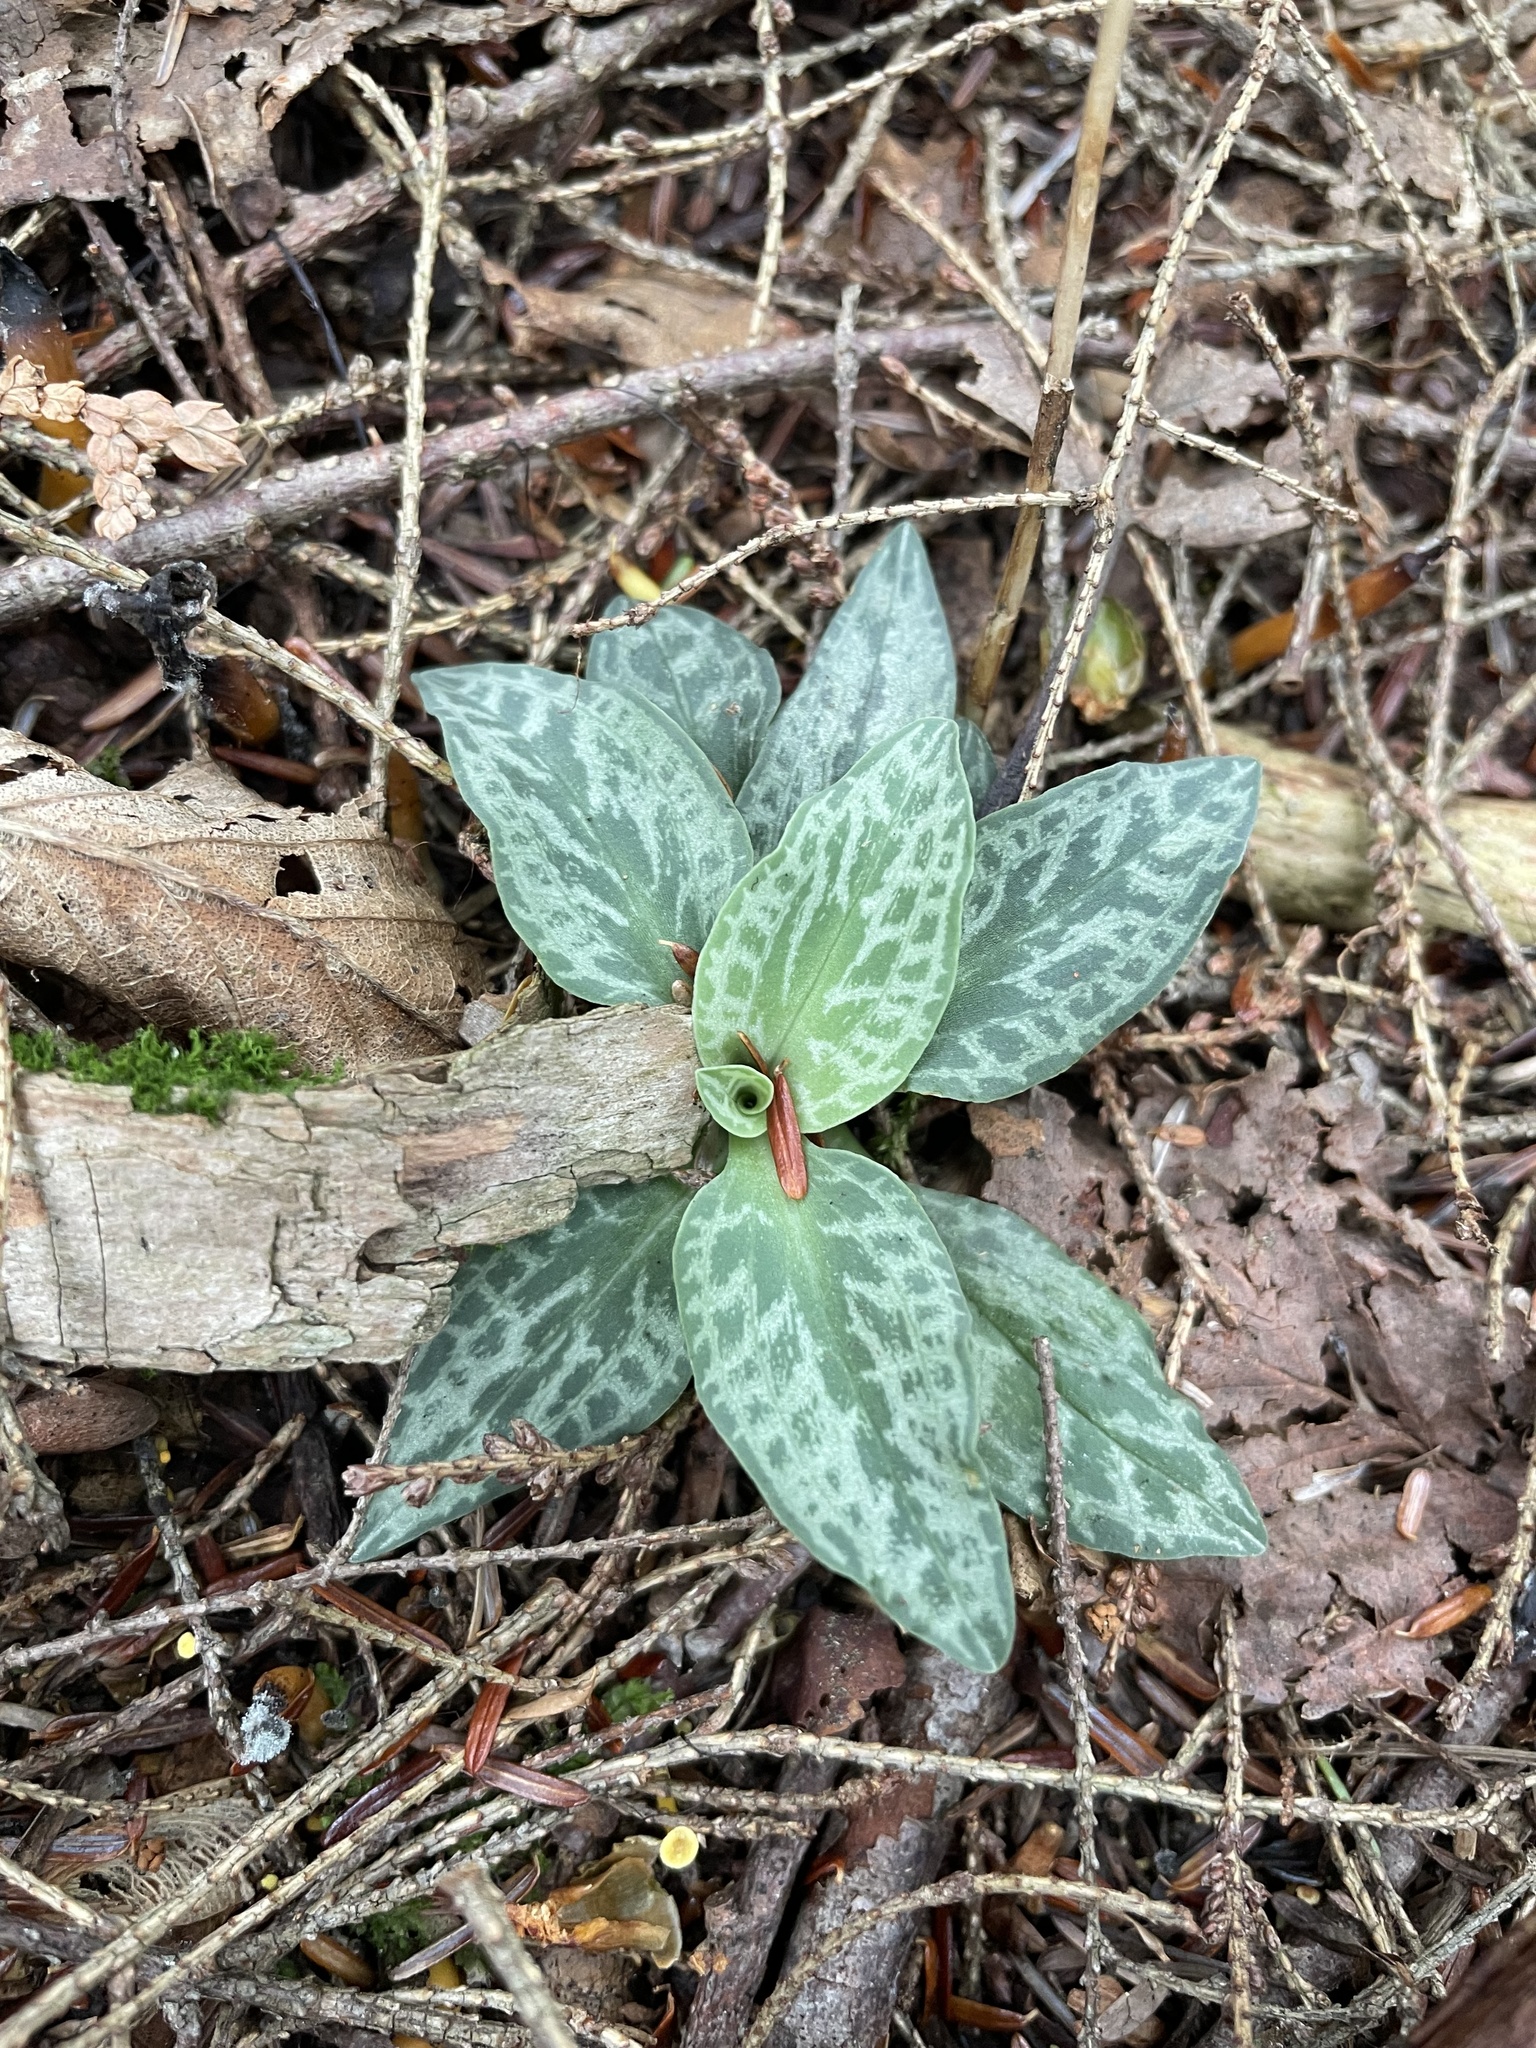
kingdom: Plantae
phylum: Tracheophyta
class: Liliopsida
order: Asparagales
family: Orchidaceae
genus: Goodyera
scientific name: Goodyera tesselata
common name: Checkered rattlesnake-plantain
